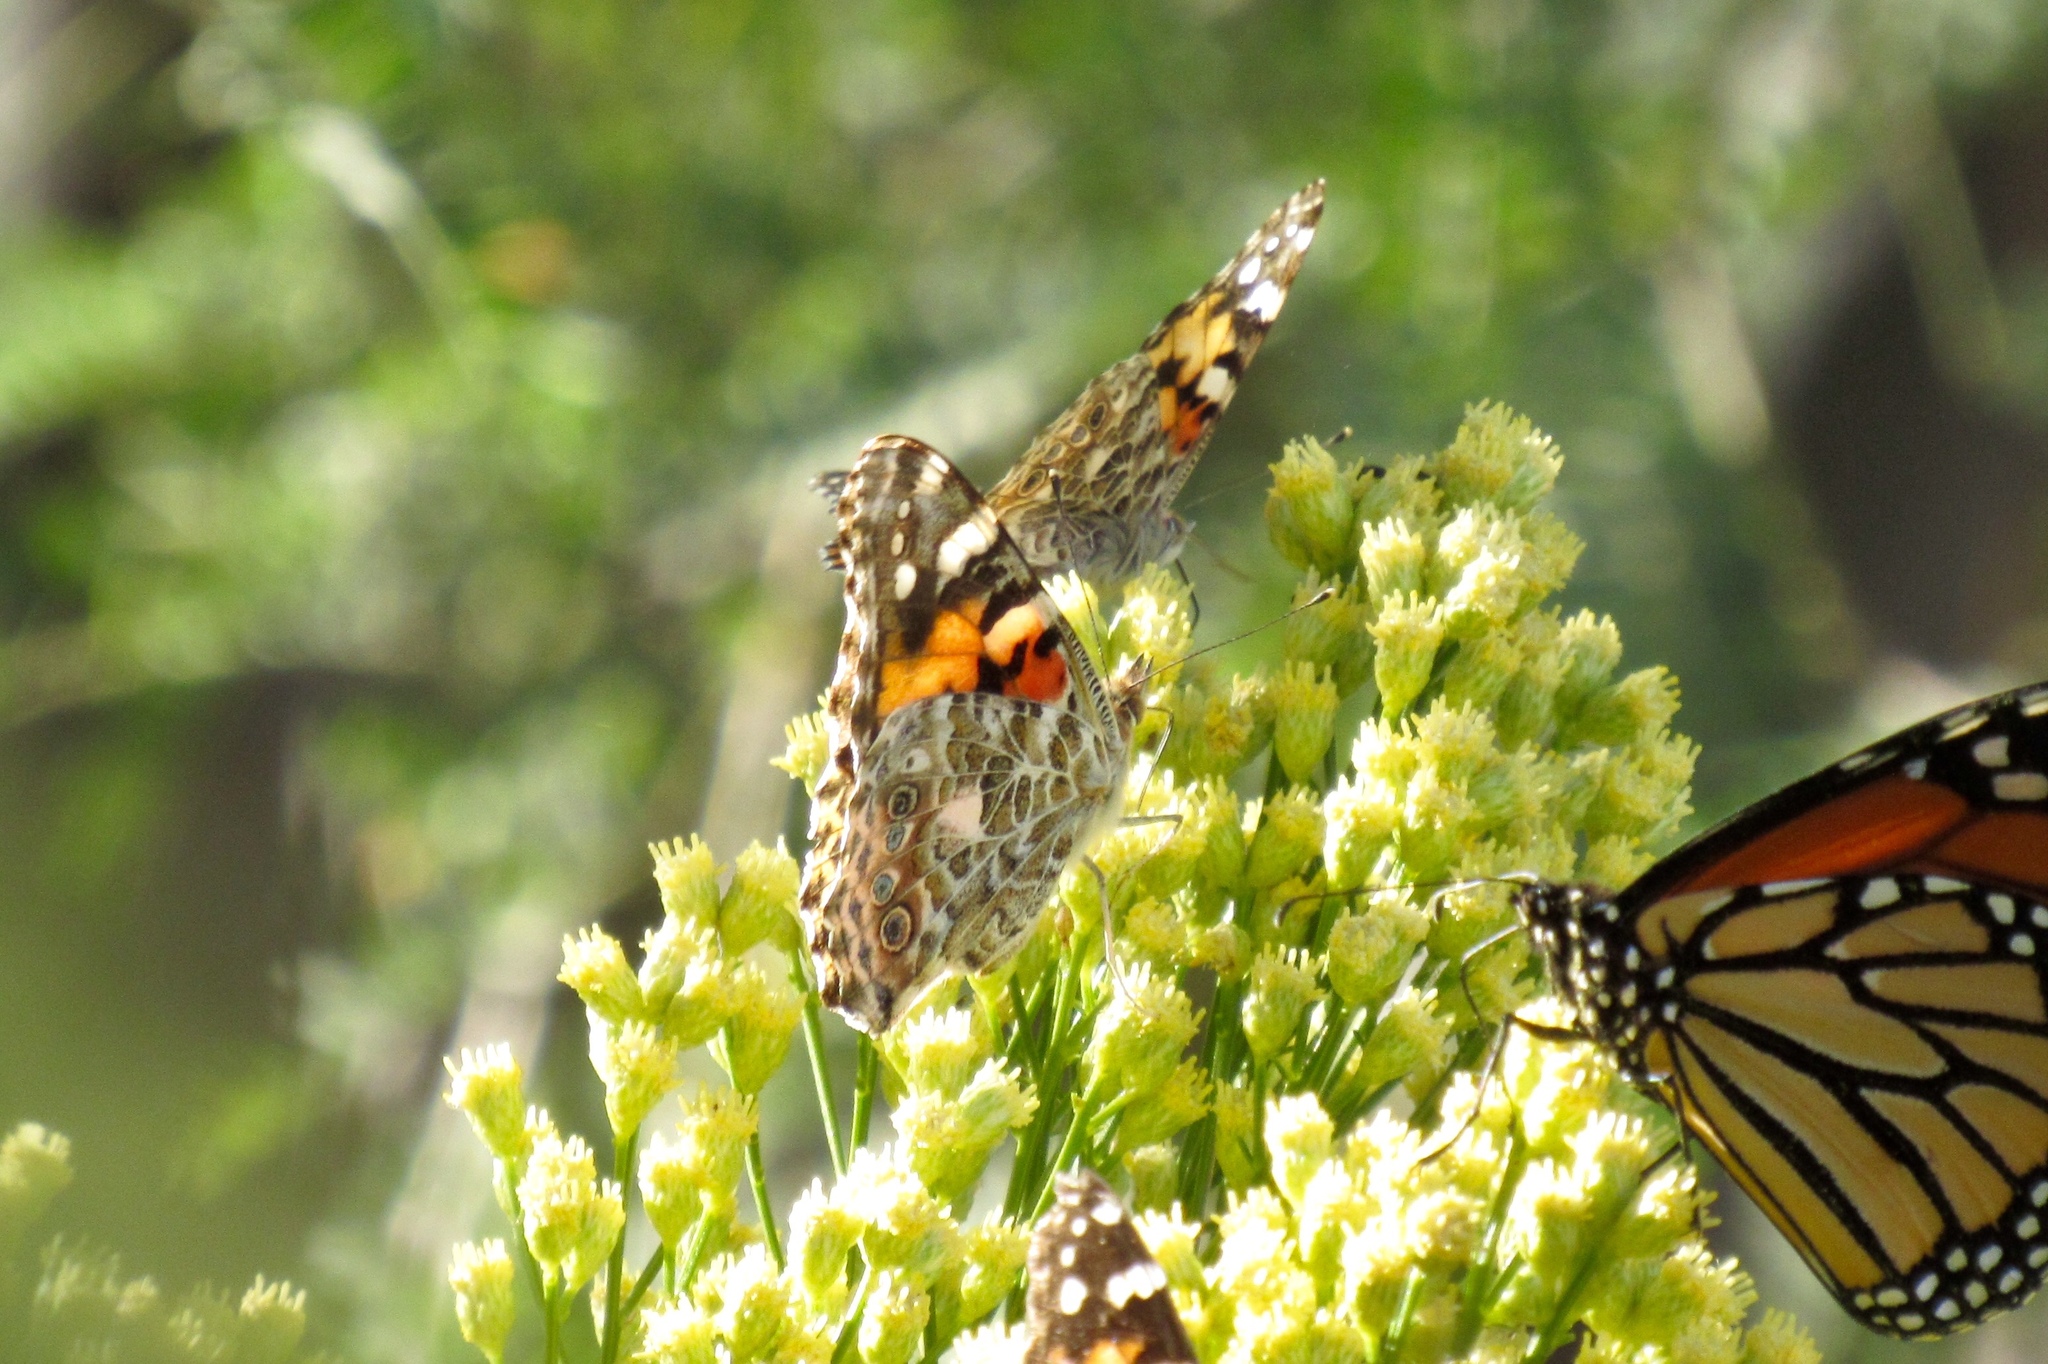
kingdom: Animalia
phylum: Arthropoda
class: Insecta
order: Lepidoptera
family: Nymphalidae
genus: Vanessa
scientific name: Vanessa cardui
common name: Painted lady
